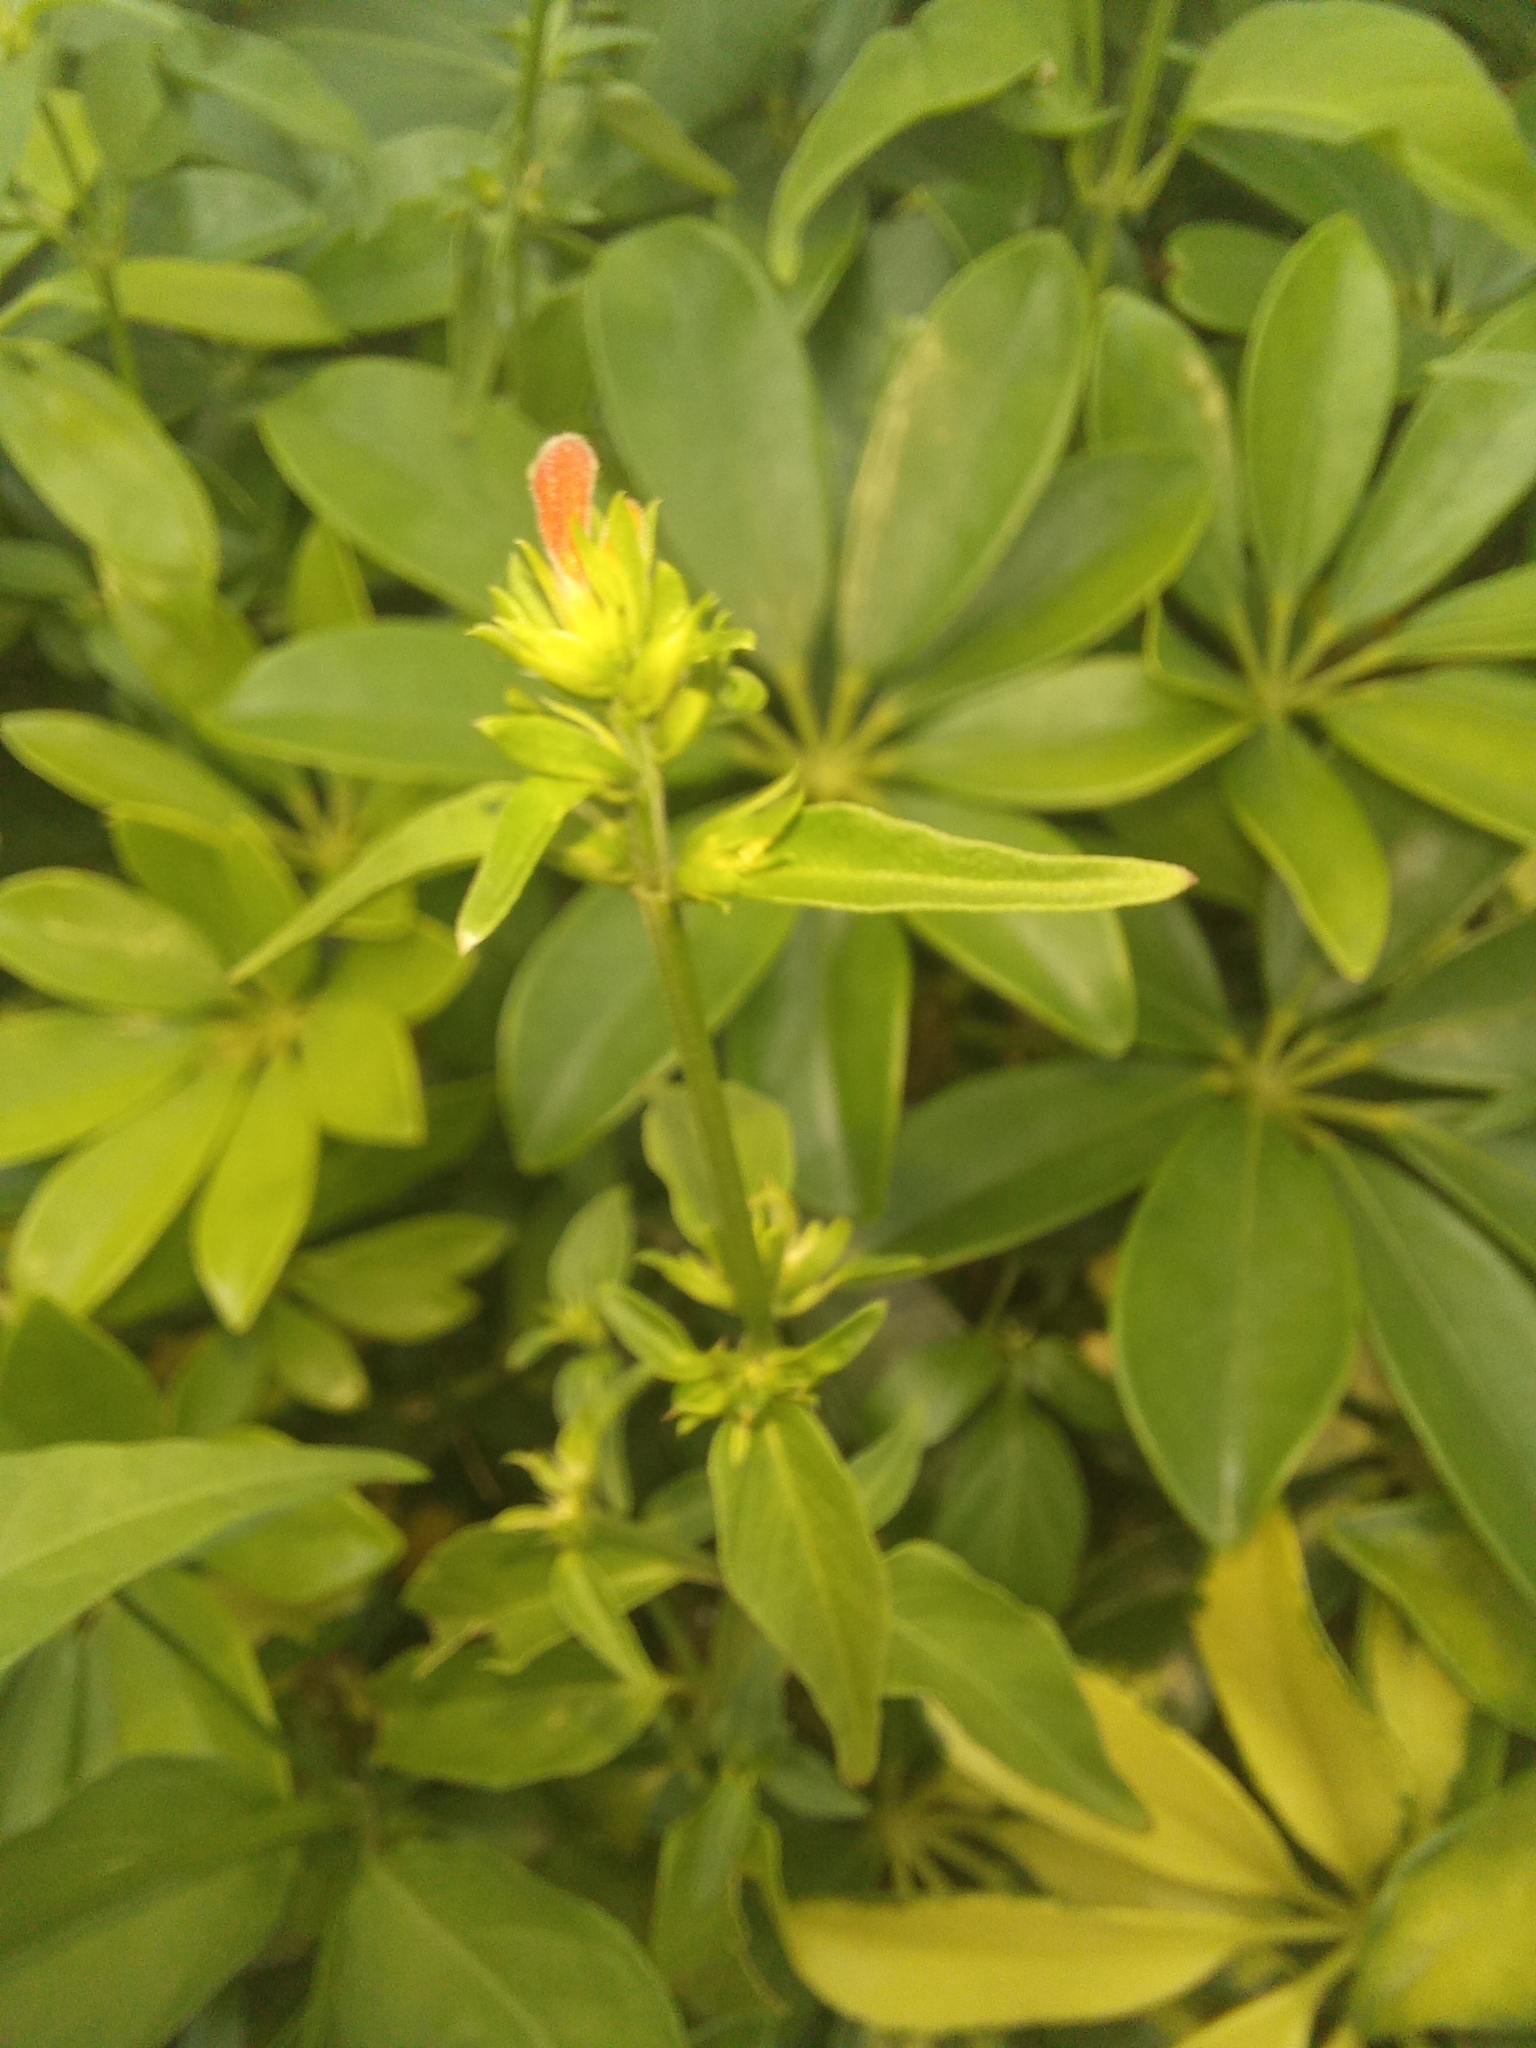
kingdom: Plantae
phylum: Tracheophyta
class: Magnoliopsida
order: Lamiales
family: Acanthaceae
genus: Dicliptera
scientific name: Dicliptera squarrosa
